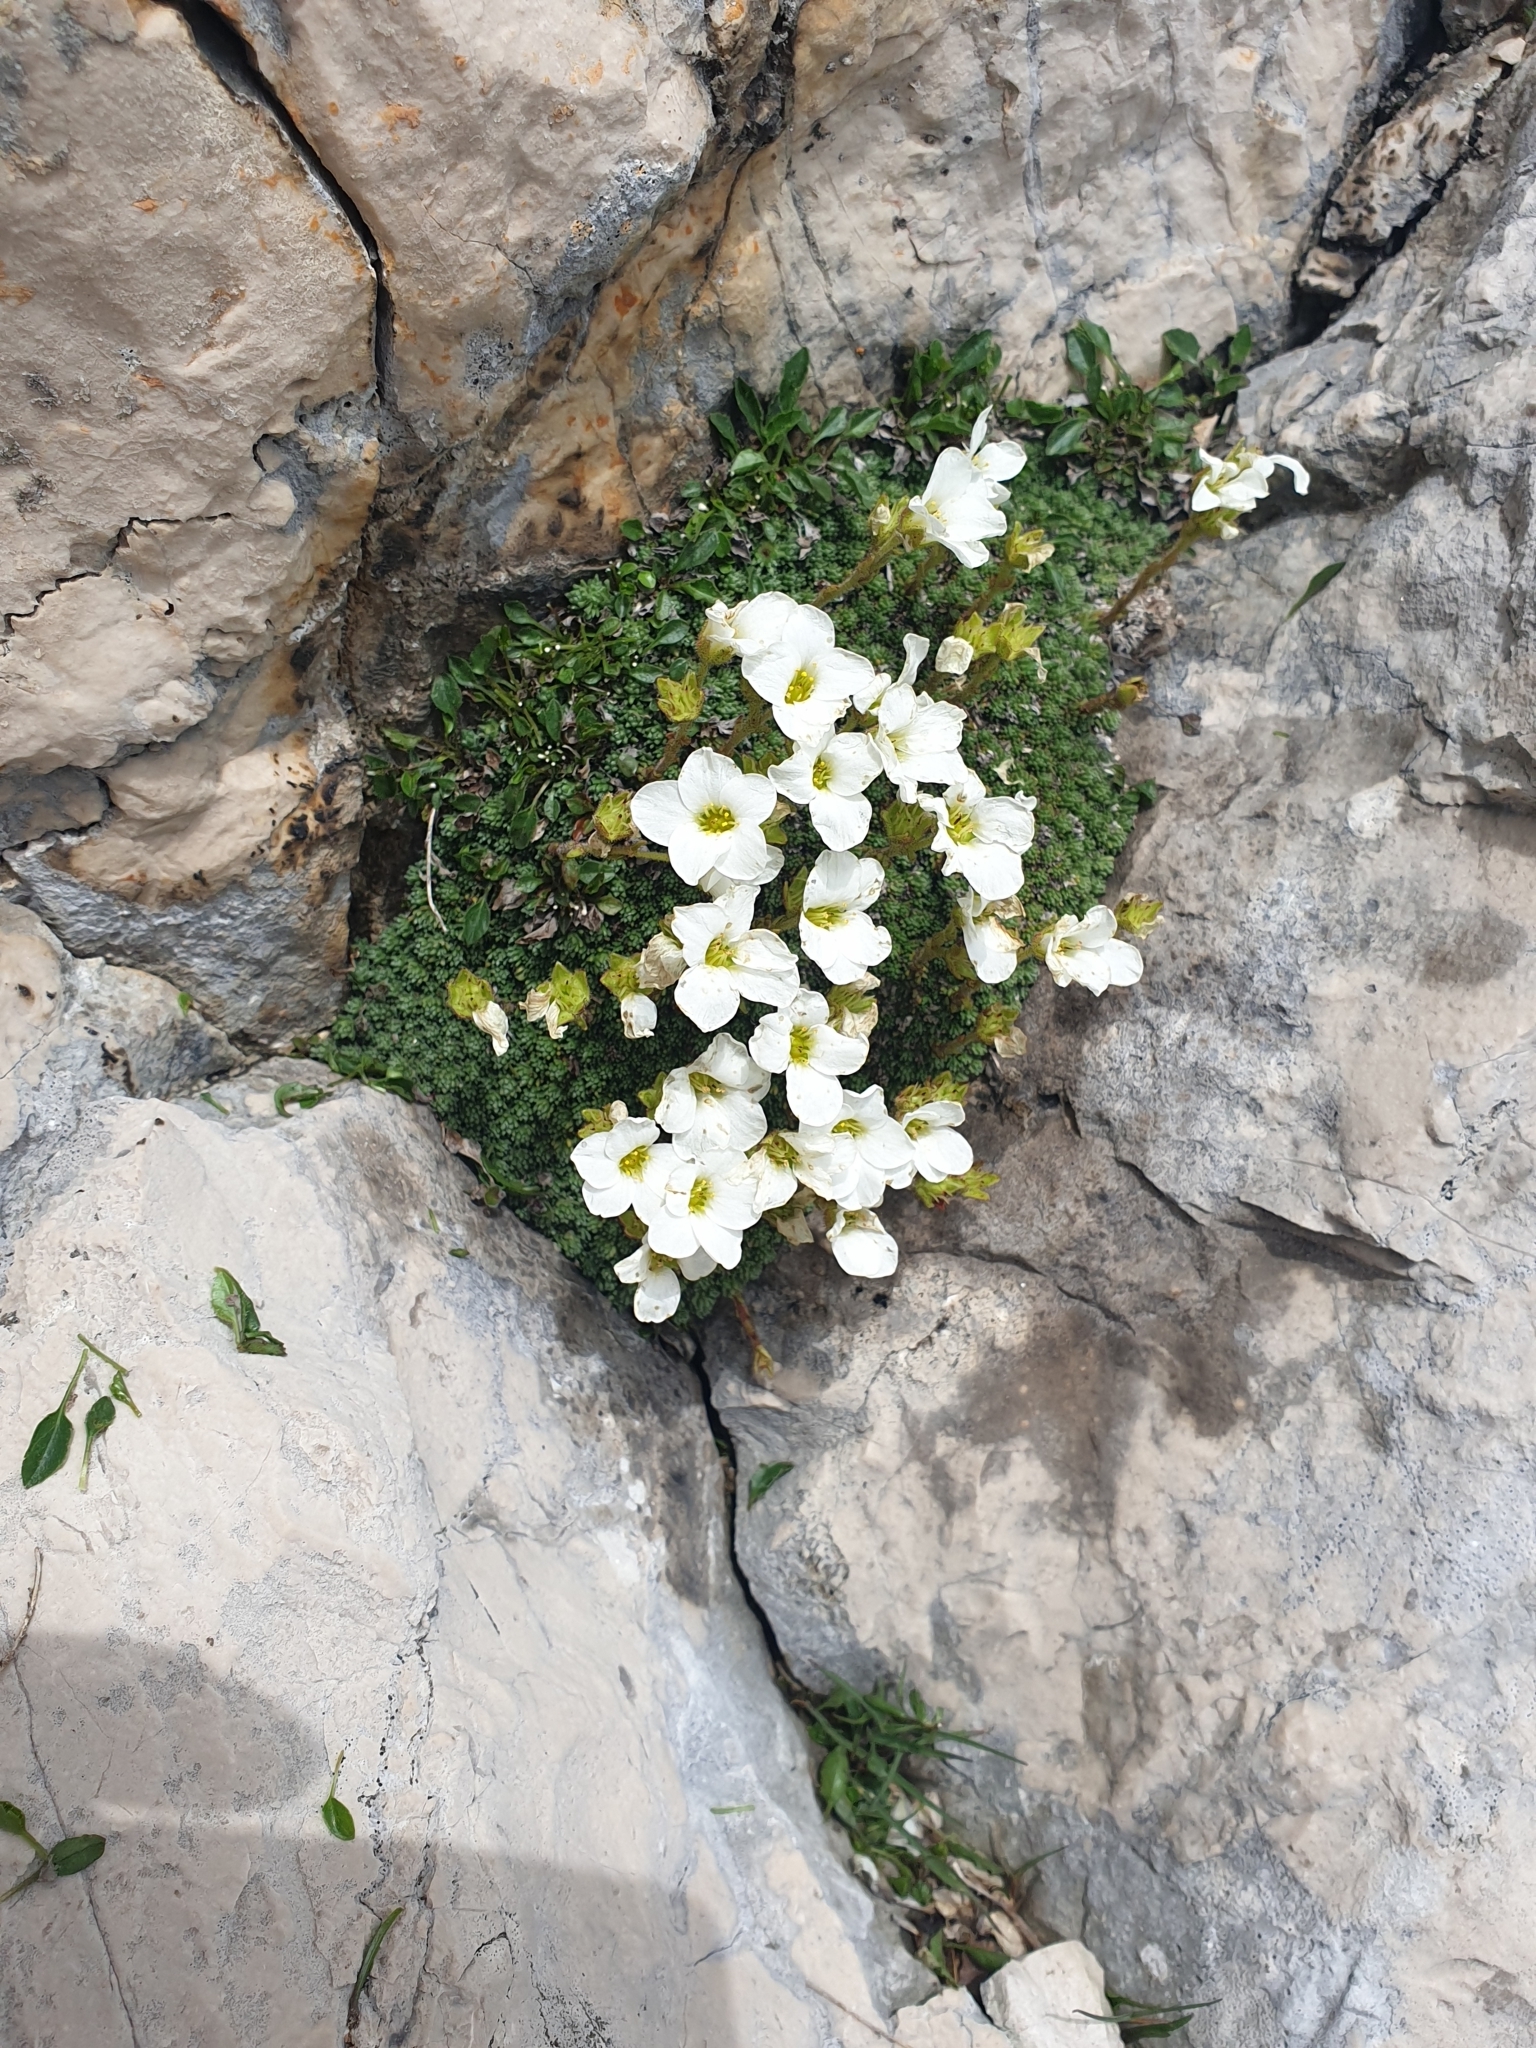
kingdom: Plantae
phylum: Tracheophyta
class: Magnoliopsida
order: Saxifragales
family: Saxifragaceae
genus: Saxifraga
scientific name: Saxifraga tombeanensis
